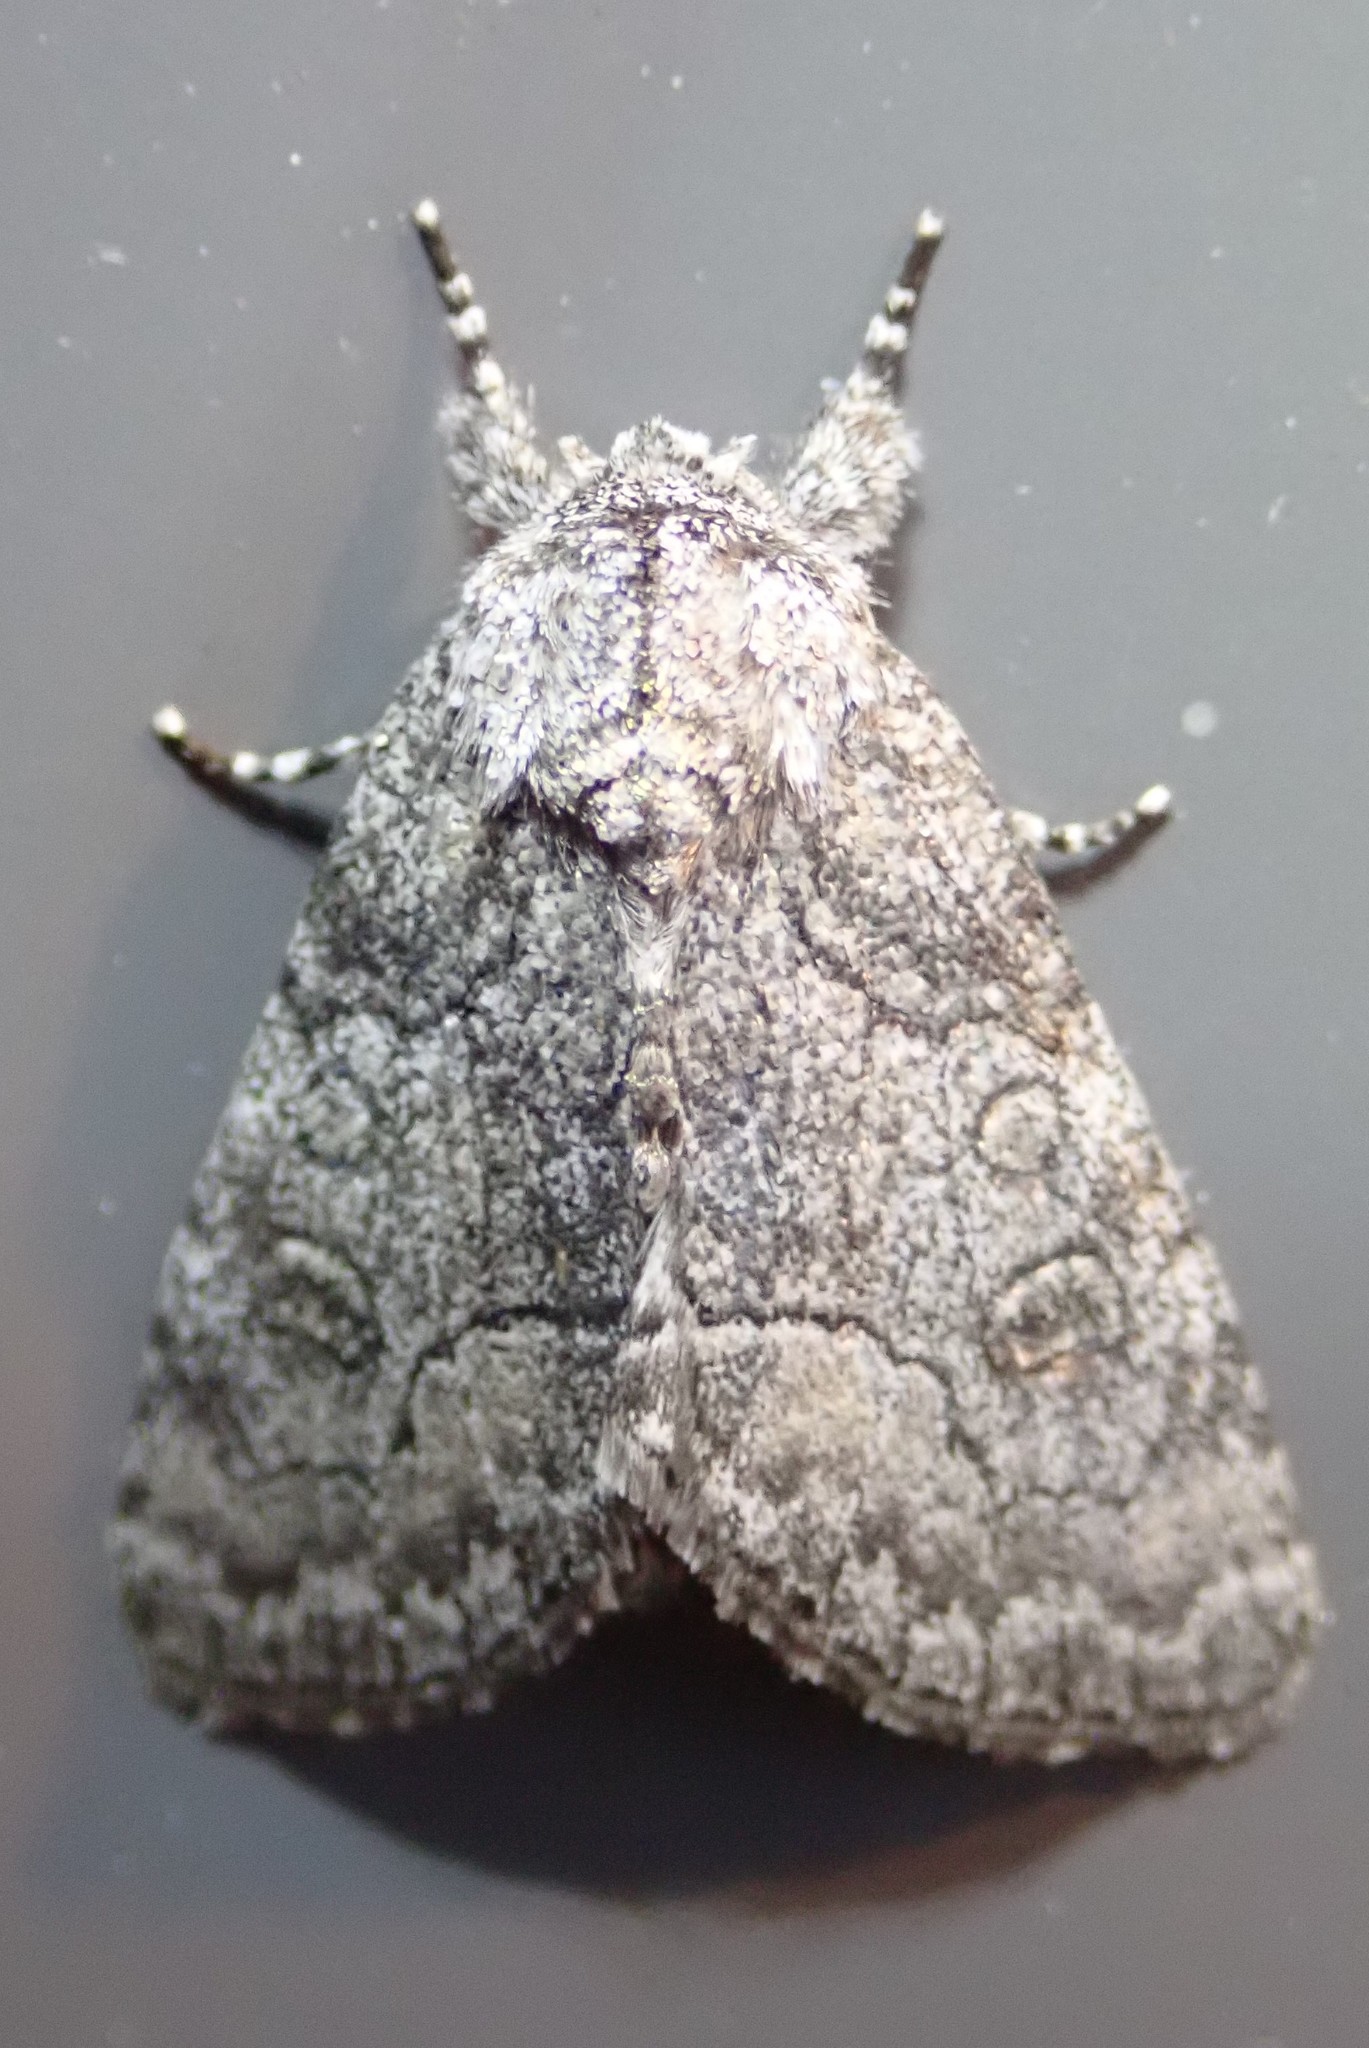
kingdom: Animalia
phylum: Arthropoda
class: Insecta
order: Lepidoptera
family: Noctuidae
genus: Raphia
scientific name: Raphia frater
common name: Brother
